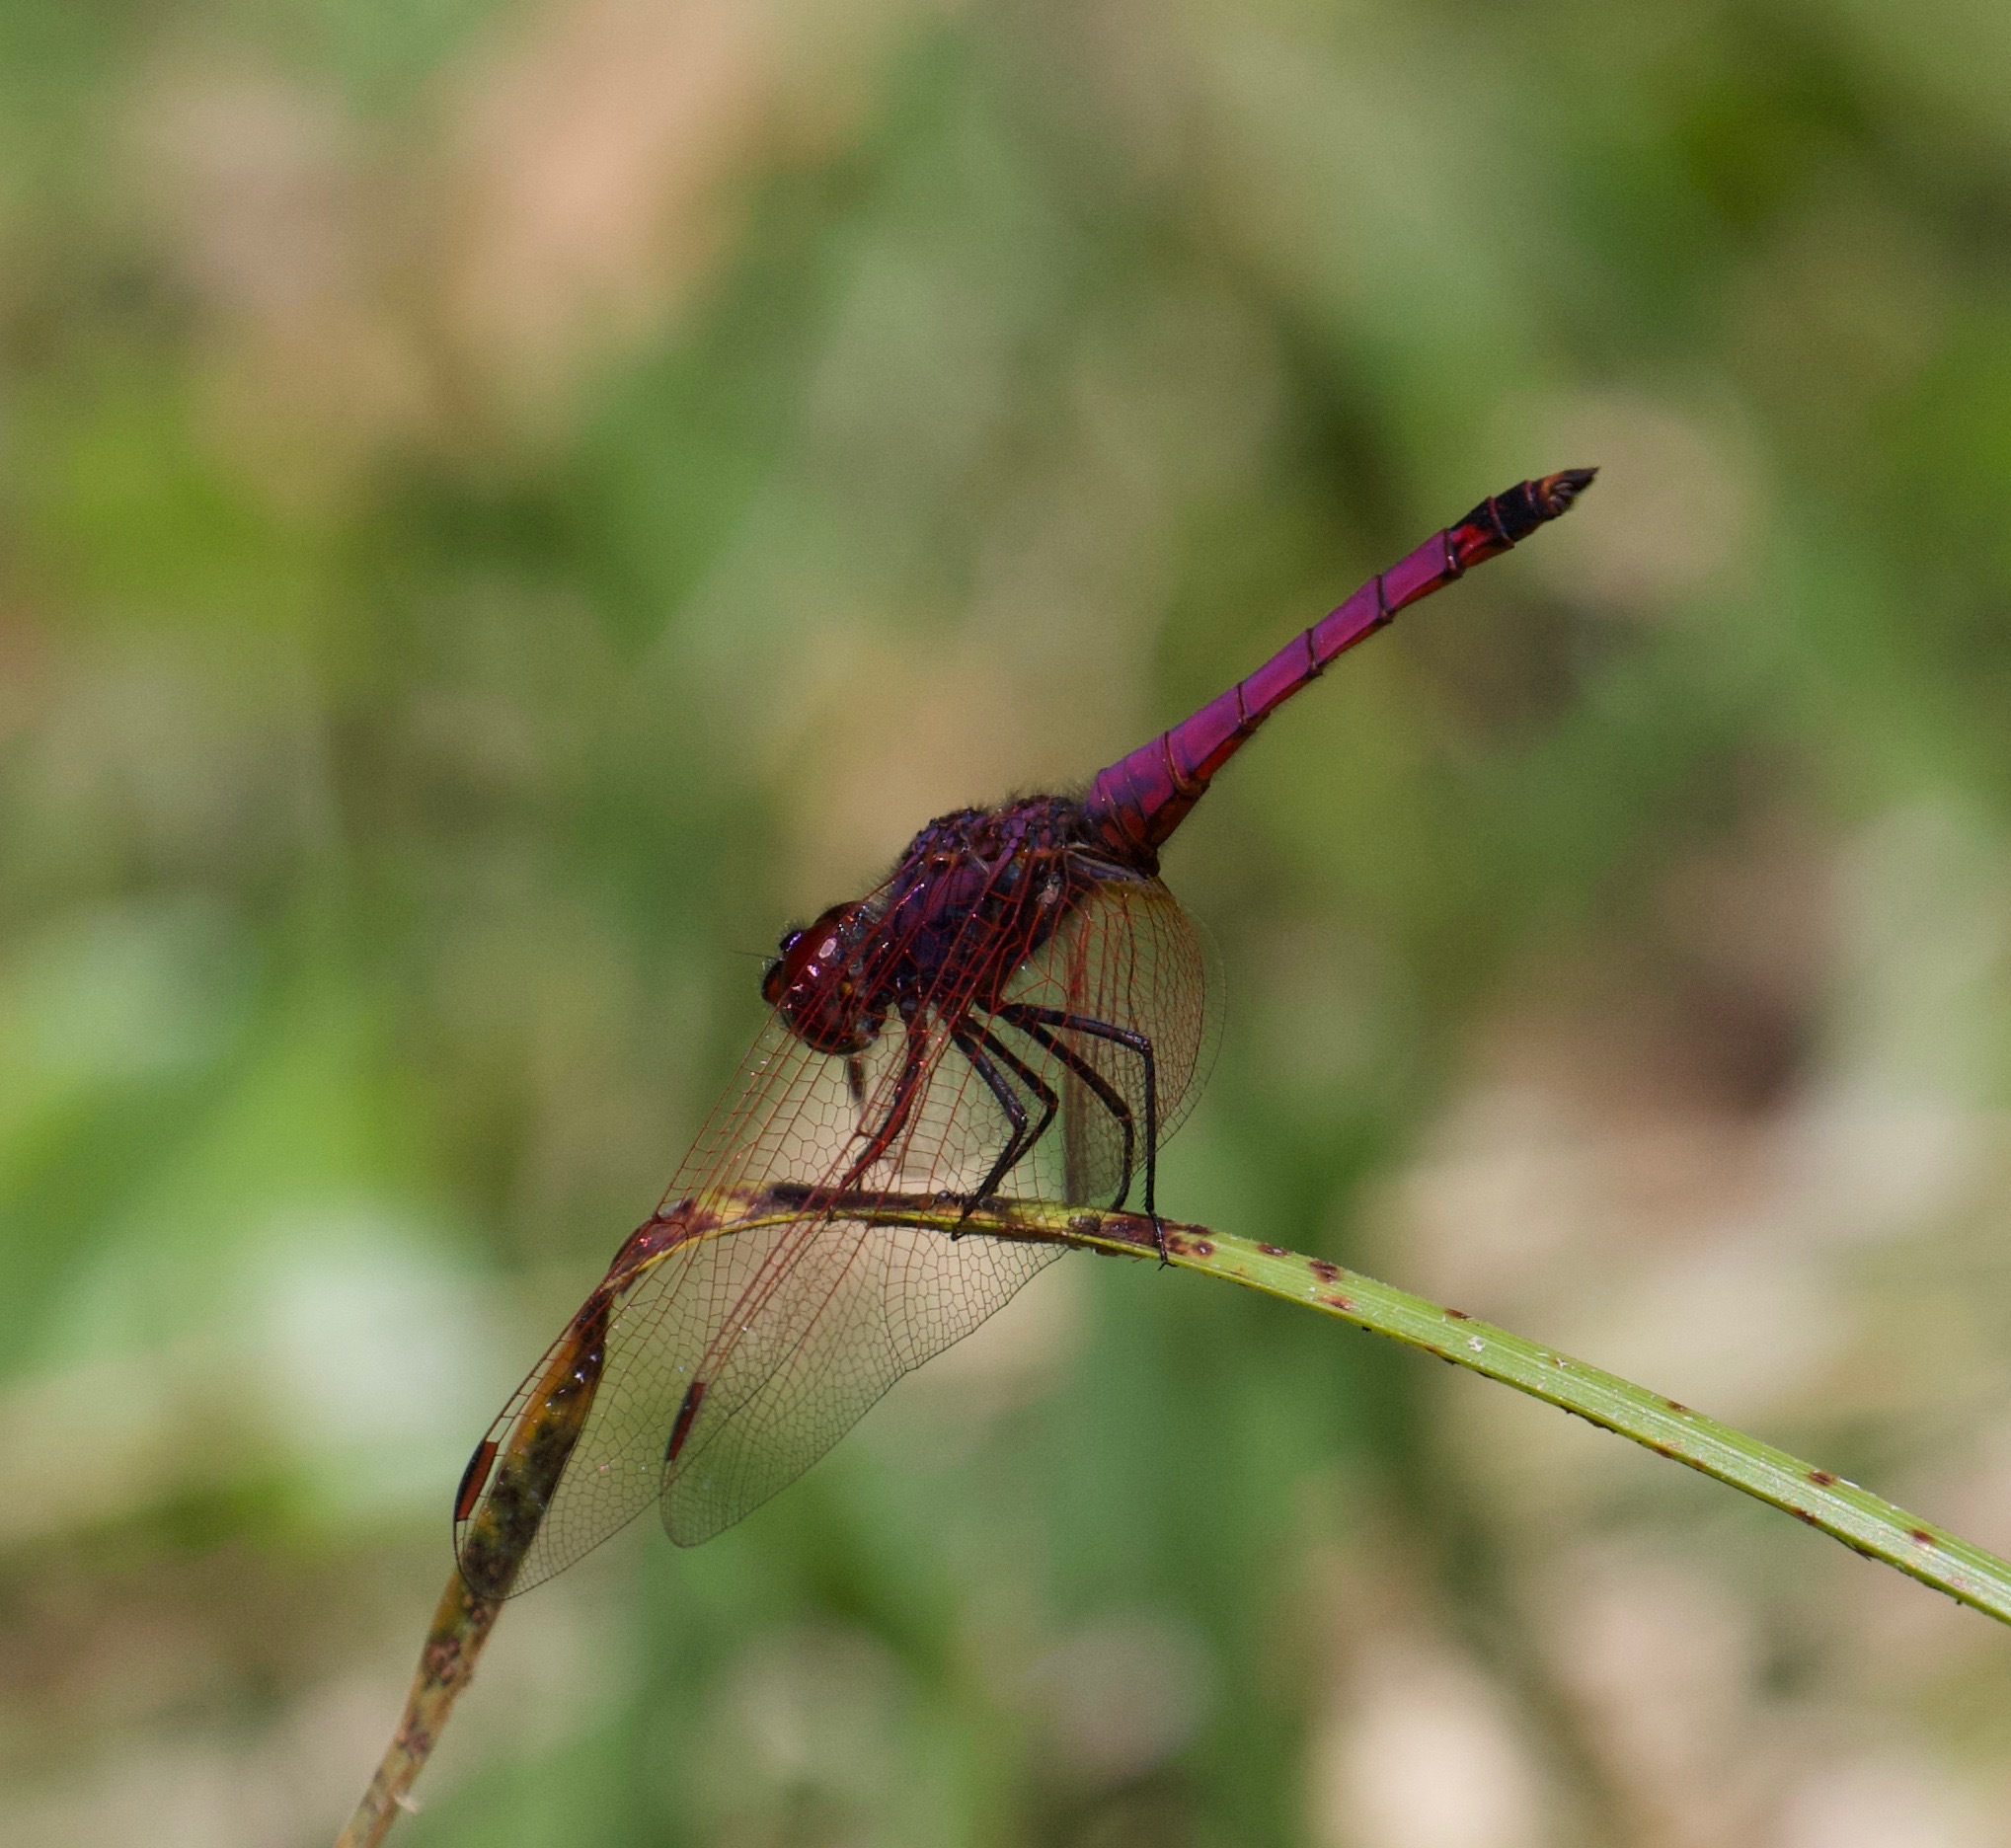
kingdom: Animalia
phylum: Arthropoda
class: Insecta
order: Odonata
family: Libellulidae
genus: Trithemis
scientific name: Trithemis annulata
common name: Violet dropwing
